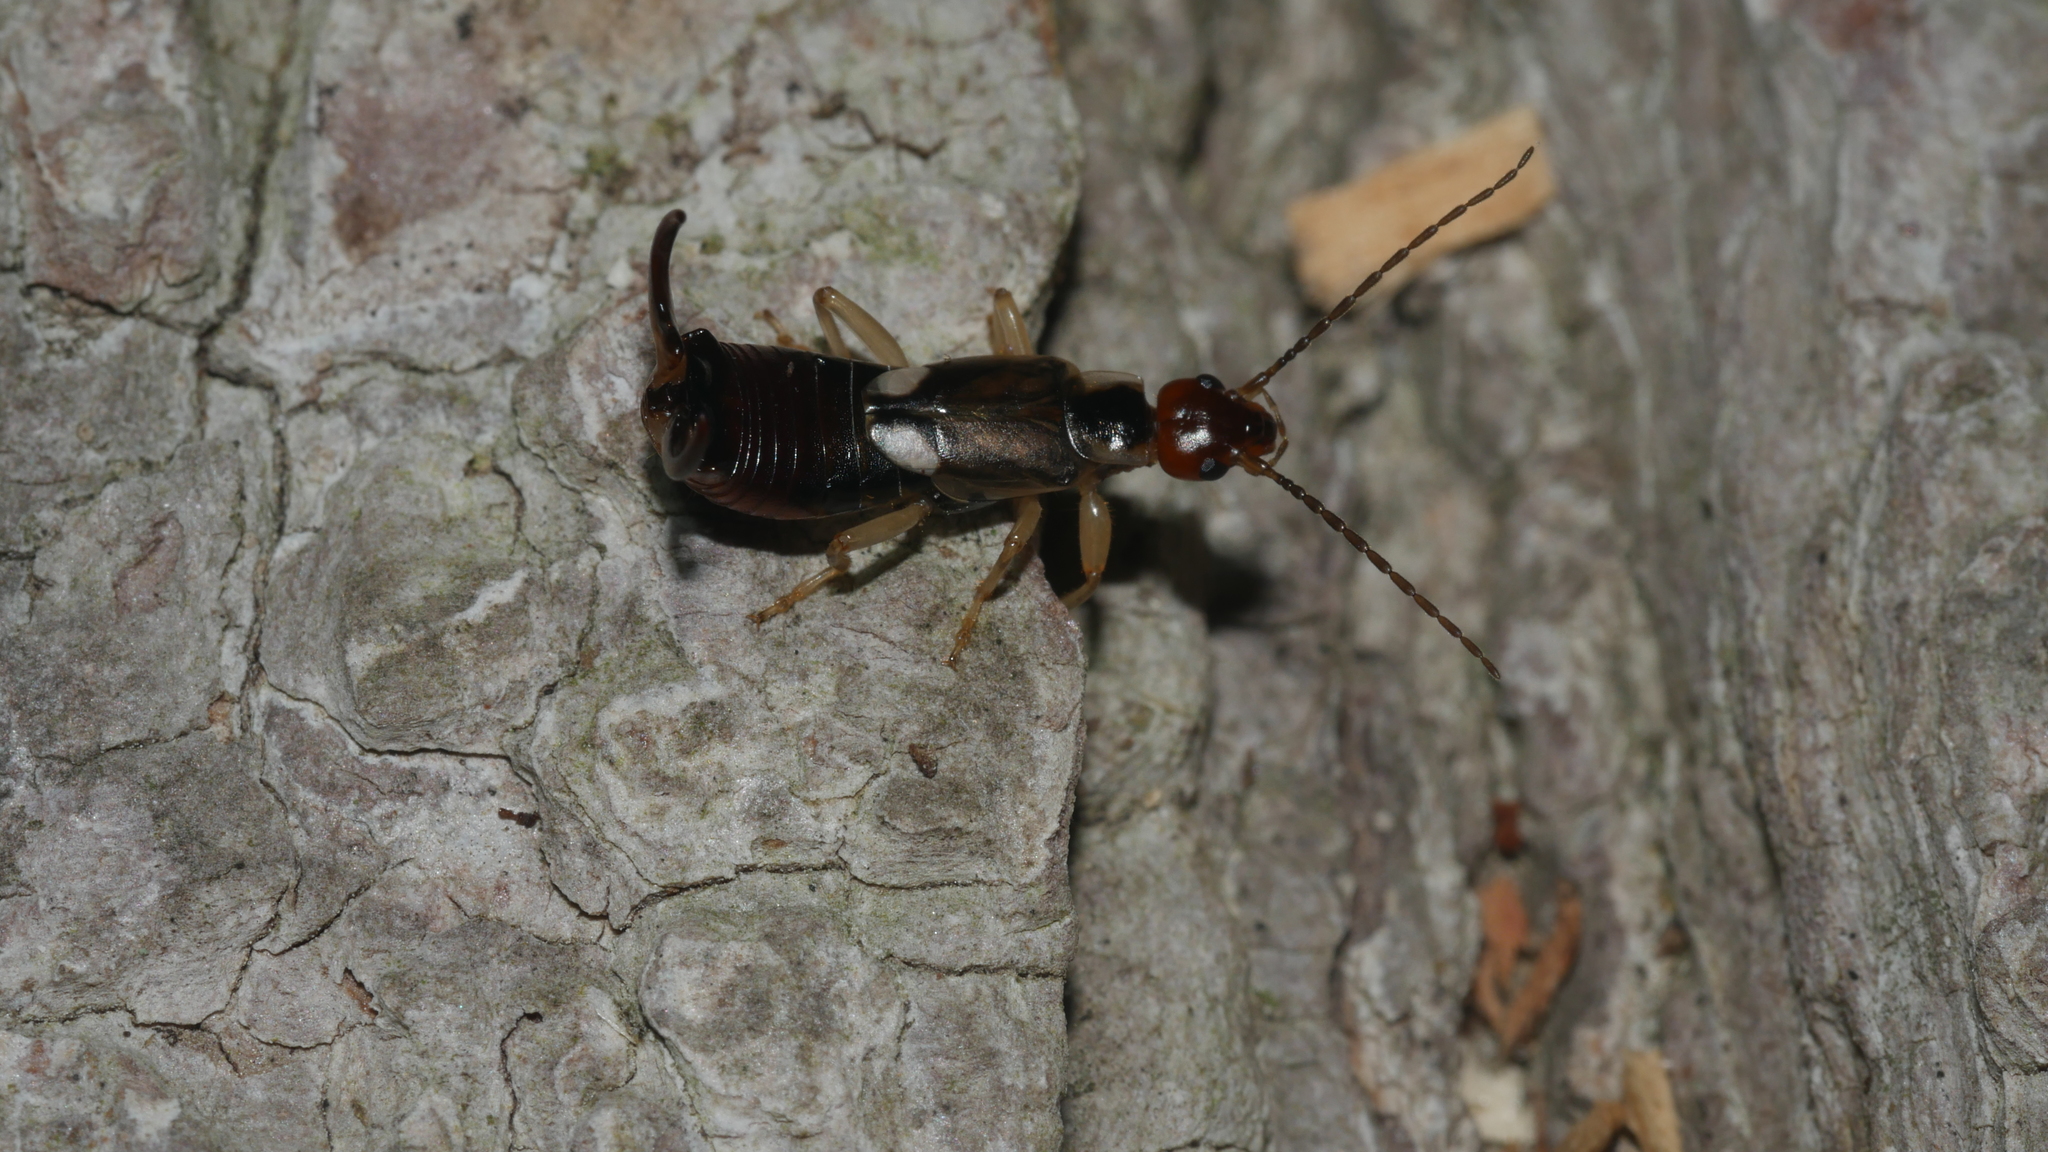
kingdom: Animalia
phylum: Arthropoda
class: Insecta
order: Dermaptera
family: Forficulidae
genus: Forficula
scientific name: Forficula
